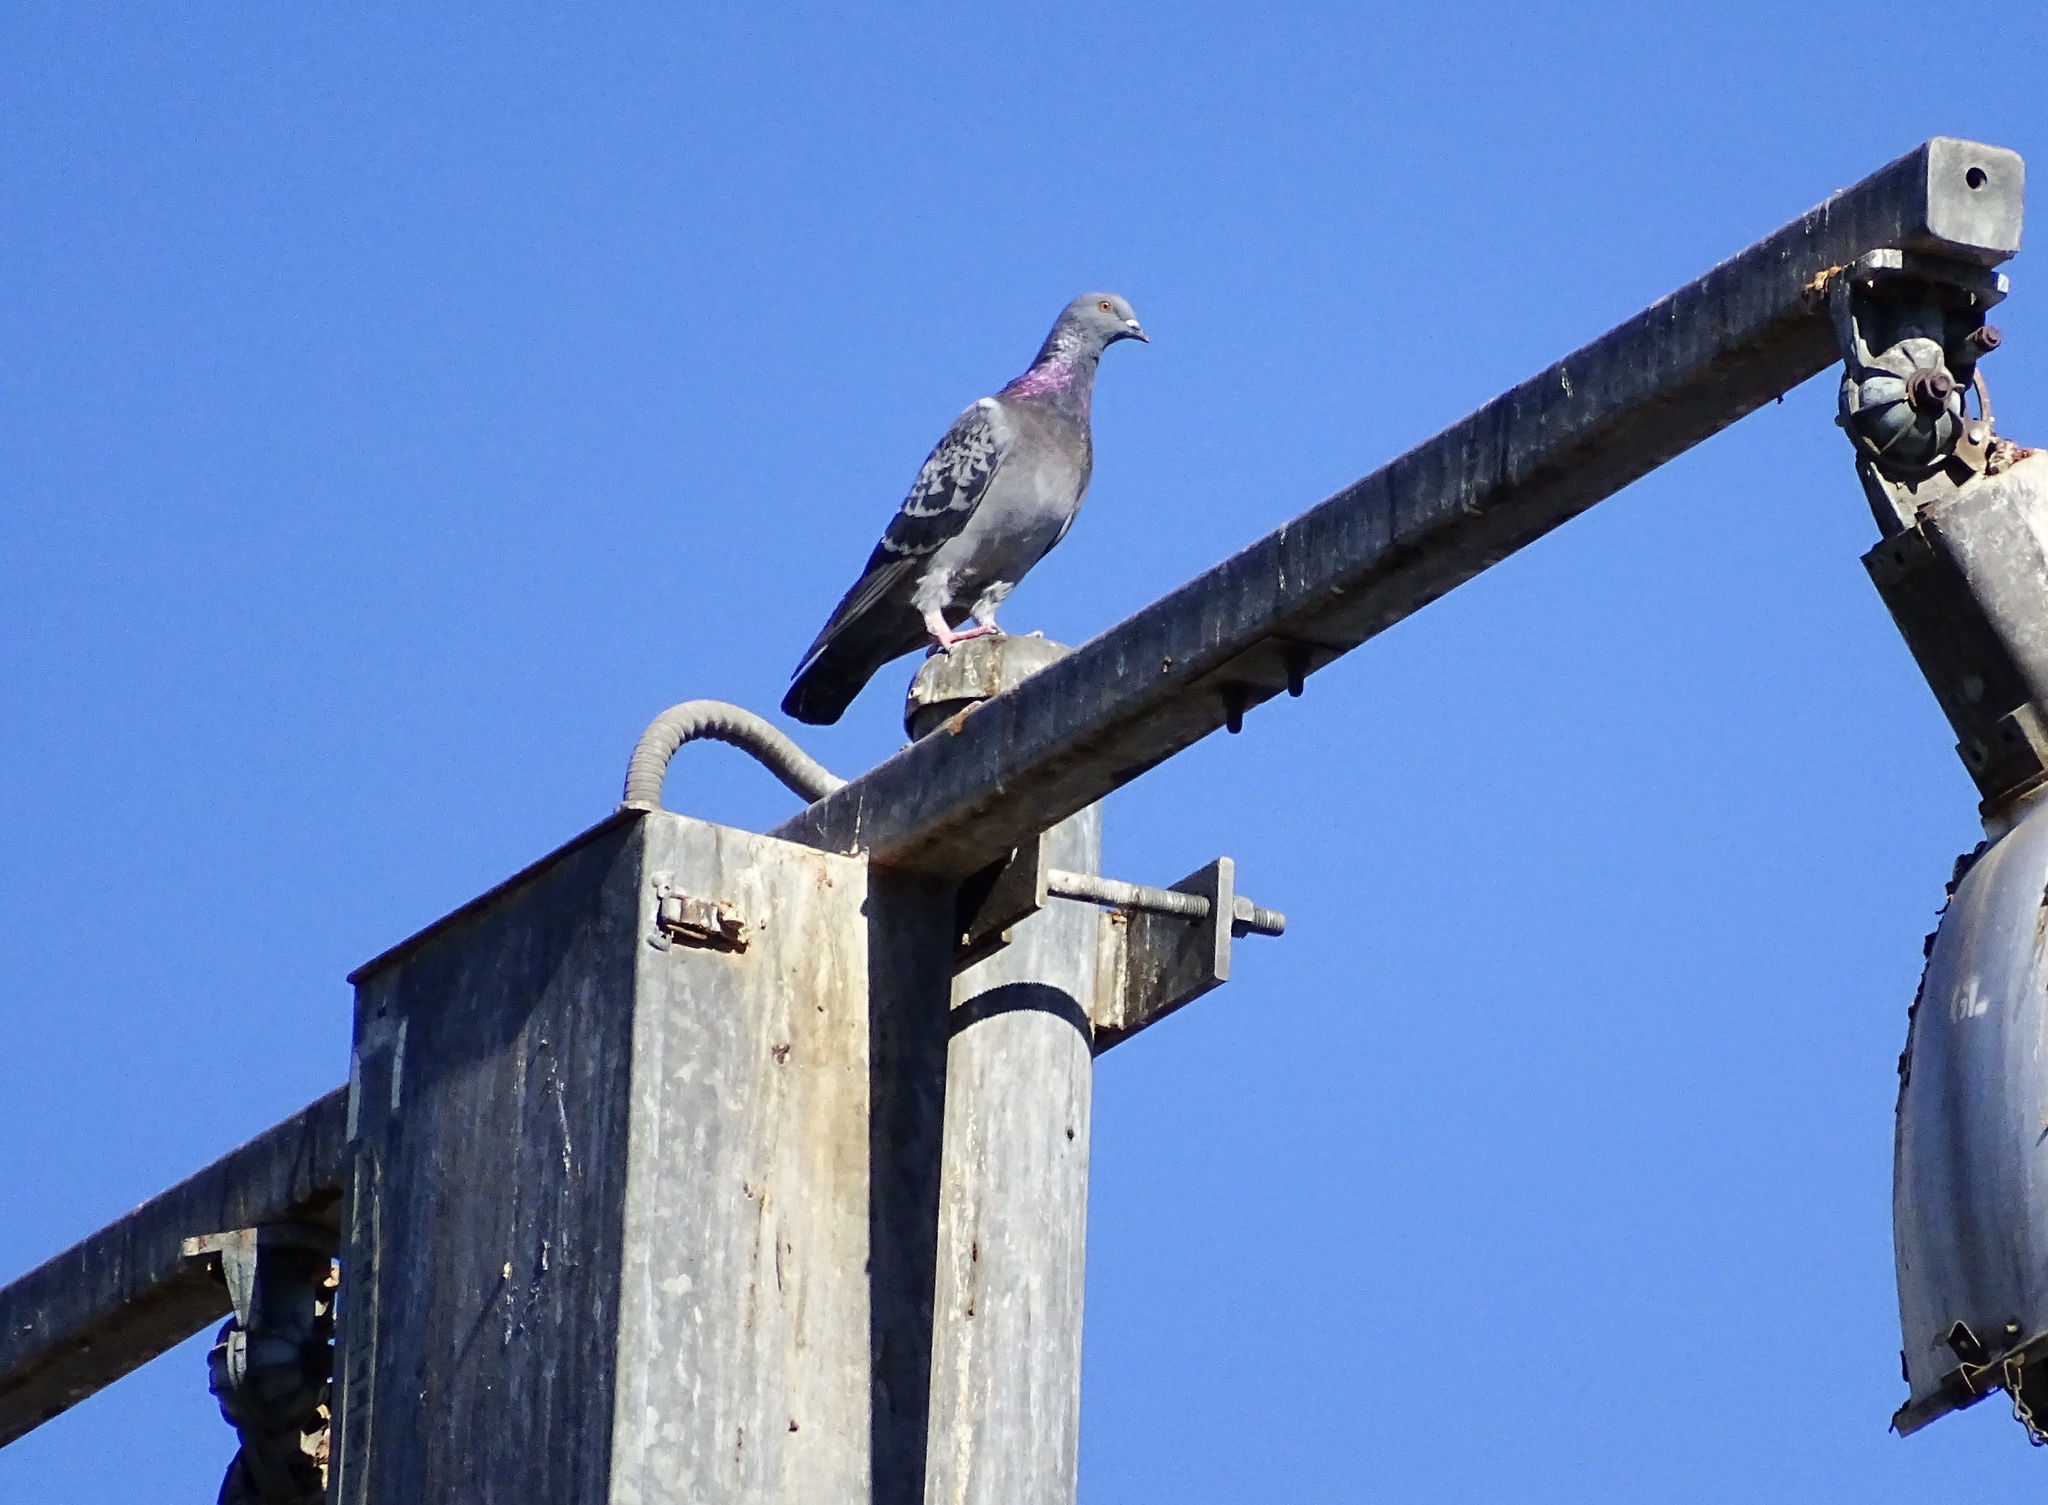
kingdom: Animalia
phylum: Chordata
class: Aves
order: Columbiformes
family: Columbidae
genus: Columba
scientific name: Columba livia
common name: Rock pigeon
